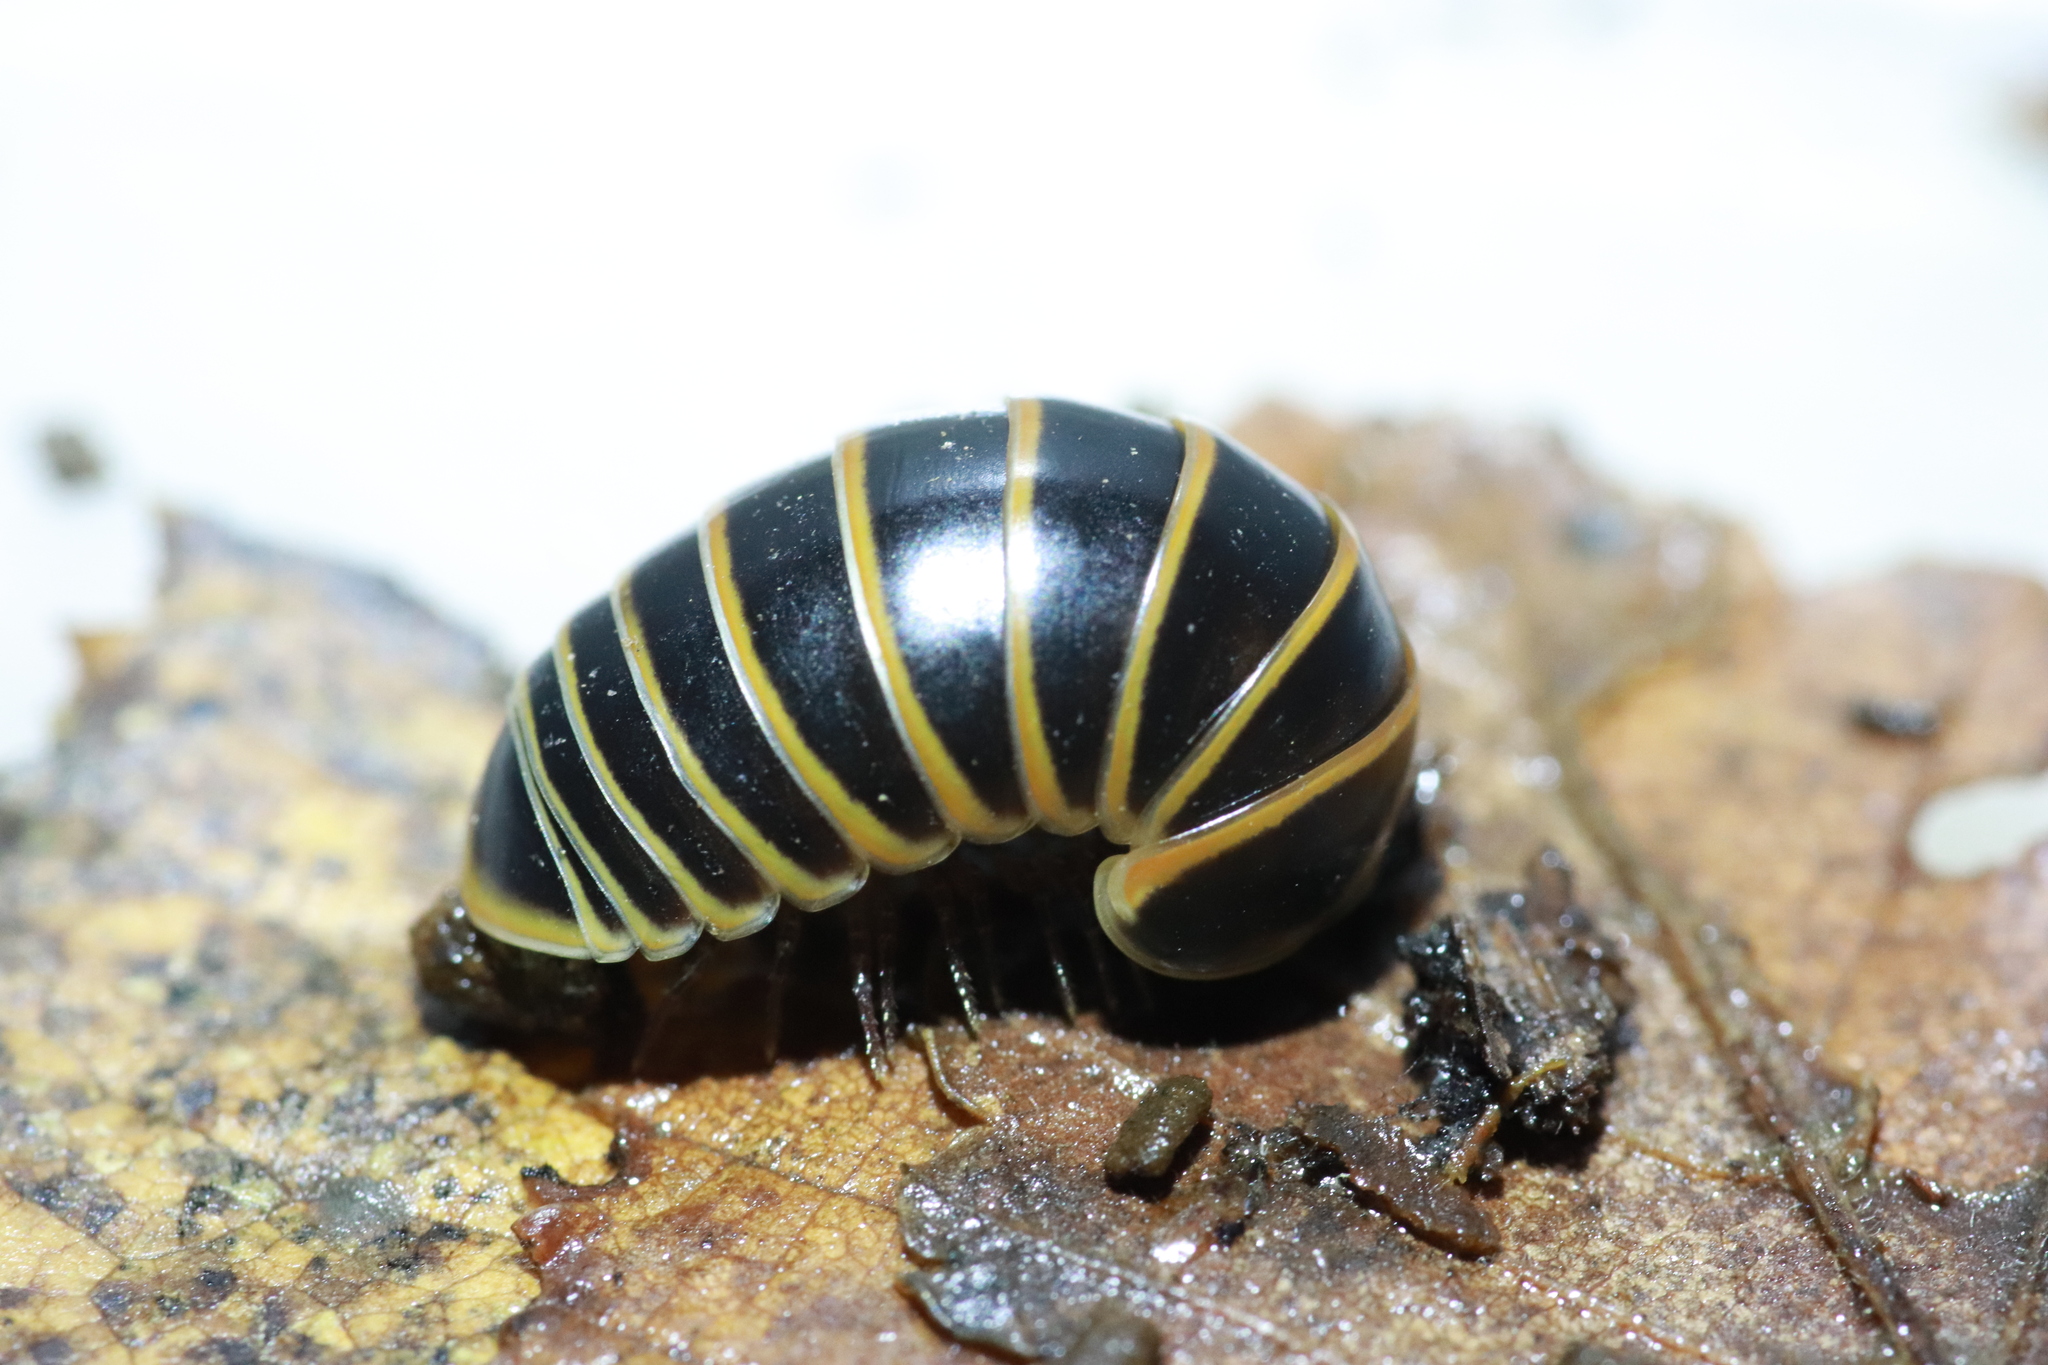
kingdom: Animalia
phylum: Arthropoda
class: Diplopoda
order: Glomerida
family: Glomeridae
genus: Glomeris
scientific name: Glomeris marginata
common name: Bordered pill millipede
